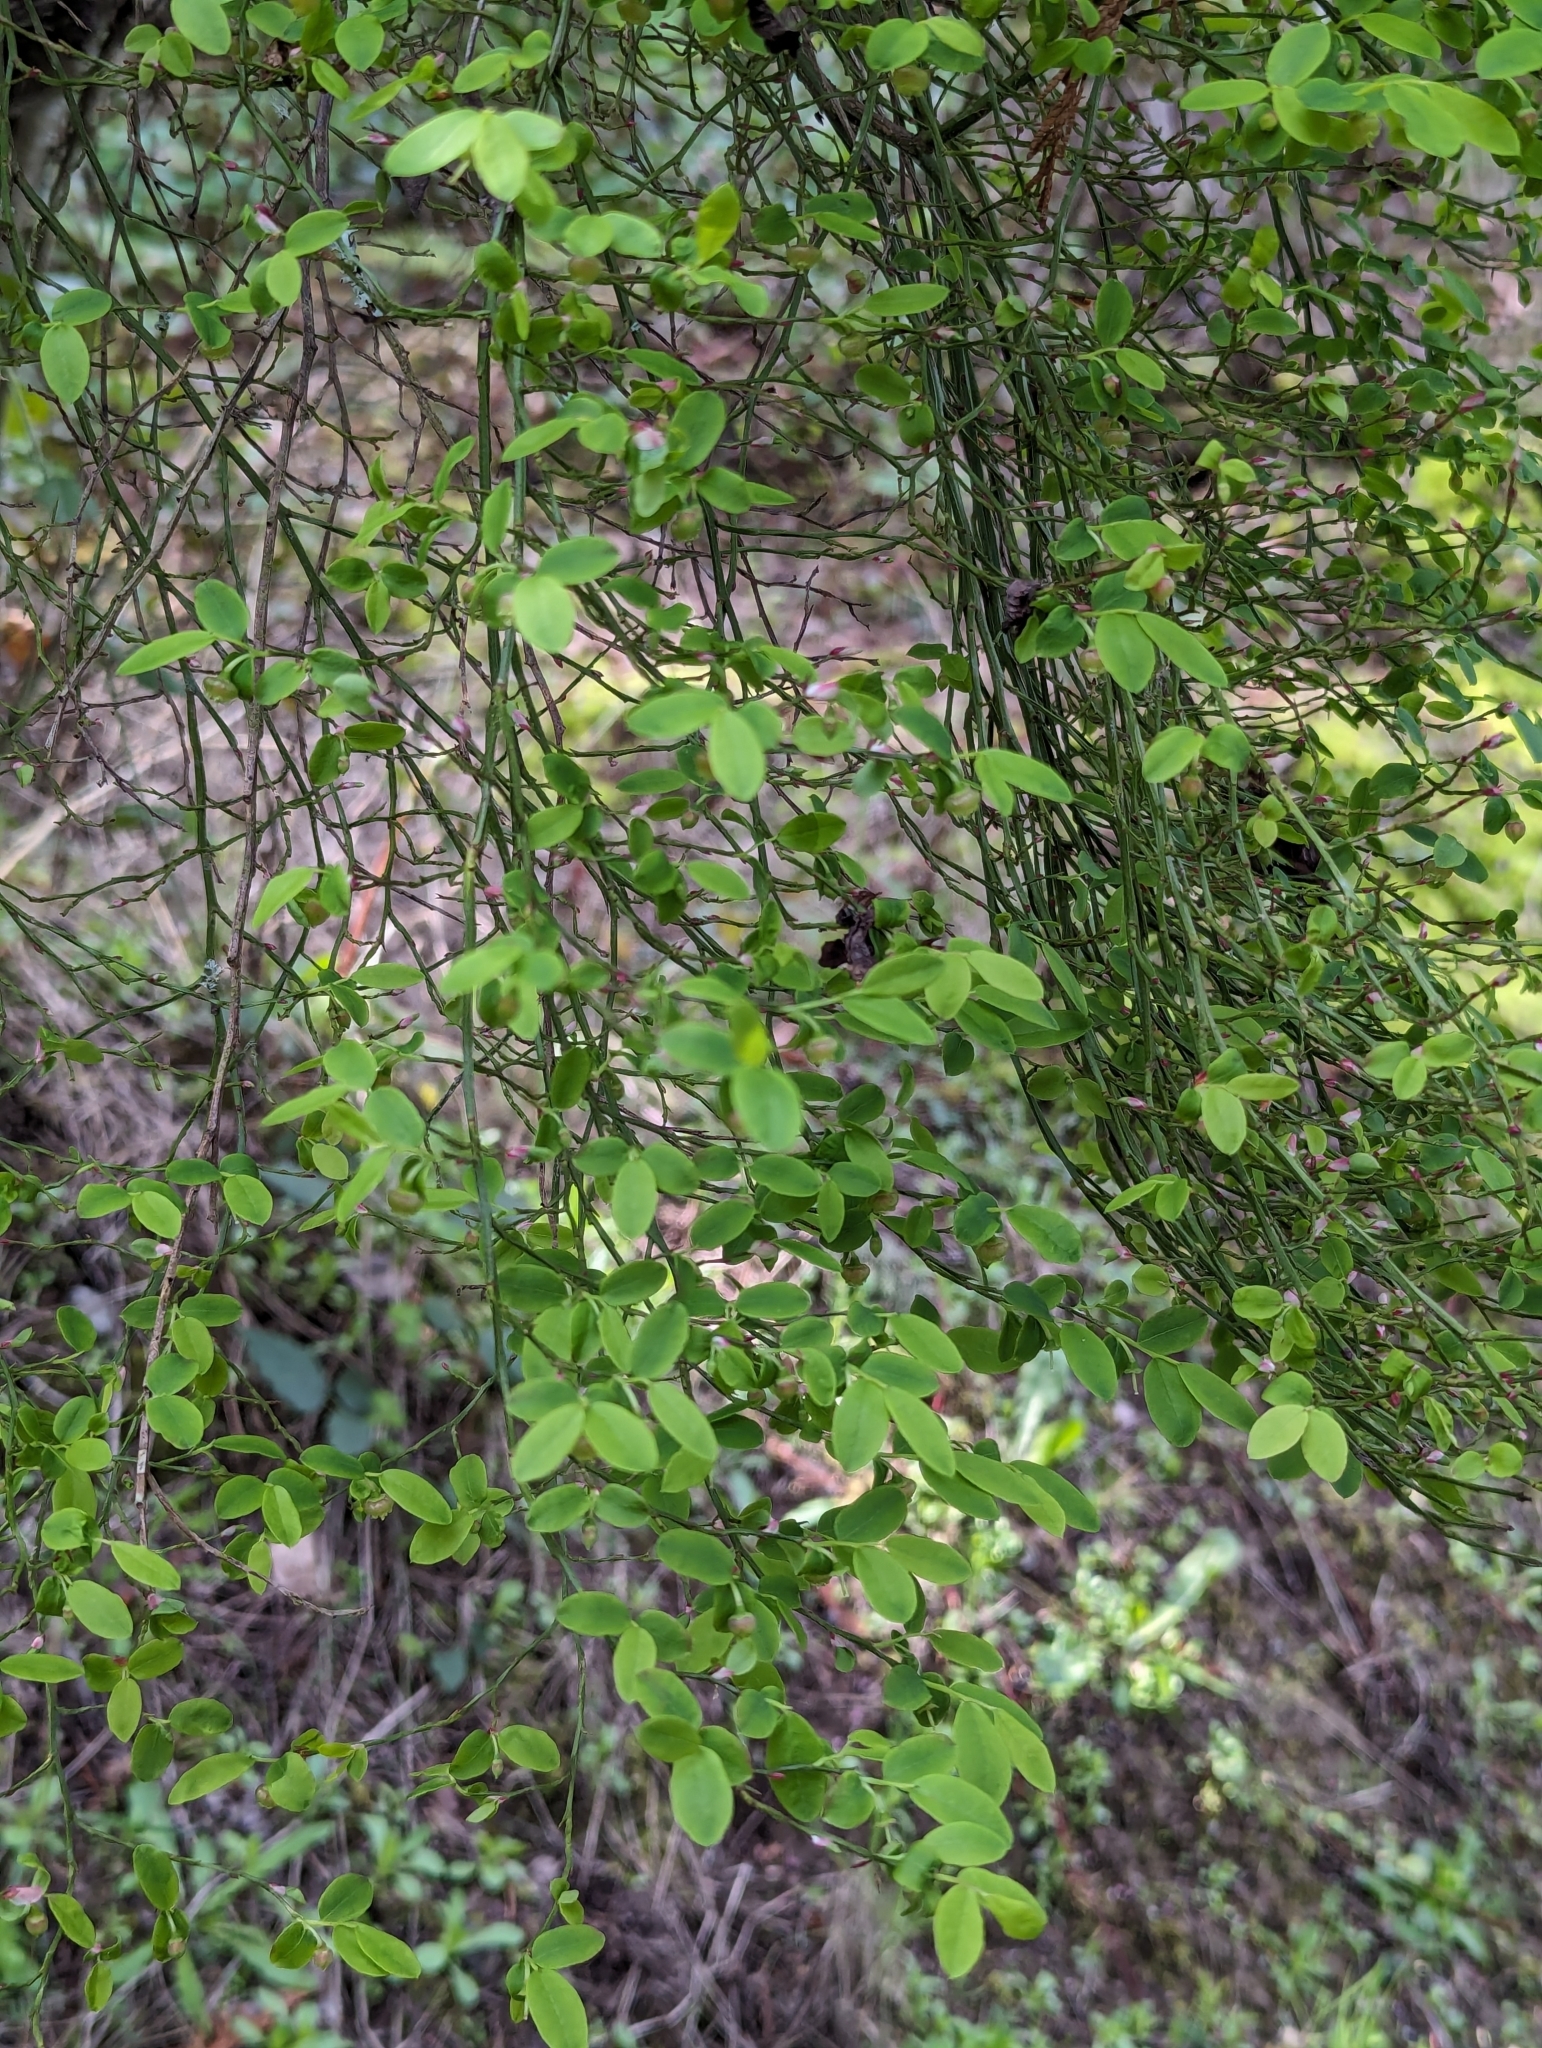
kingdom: Plantae
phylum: Tracheophyta
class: Magnoliopsida
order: Ericales
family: Ericaceae
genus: Vaccinium
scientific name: Vaccinium parvifolium
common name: Red-huckleberry
